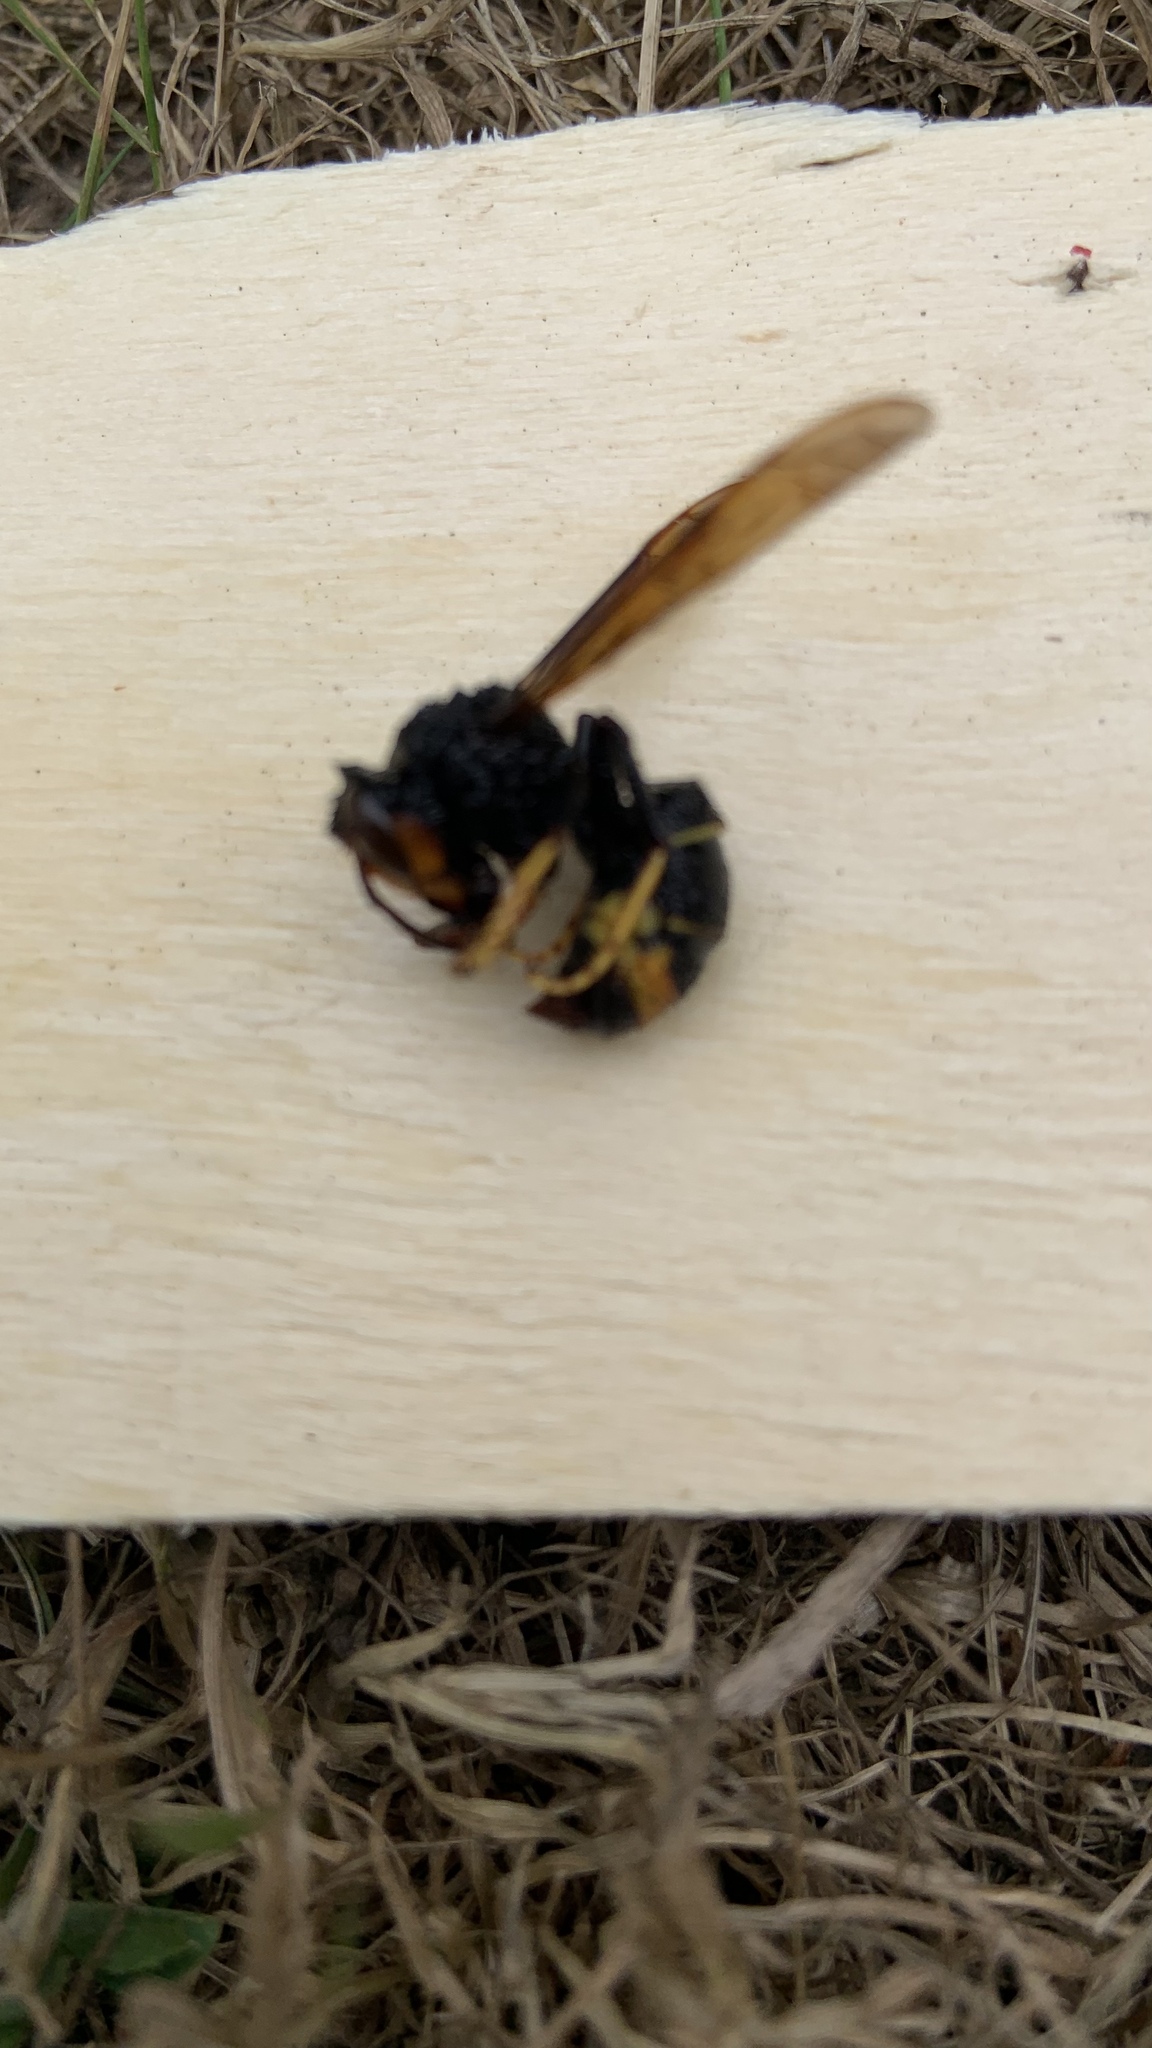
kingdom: Animalia
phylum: Arthropoda
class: Insecta
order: Hymenoptera
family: Vespidae
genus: Vespa
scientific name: Vespa velutina
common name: Asian hornet
